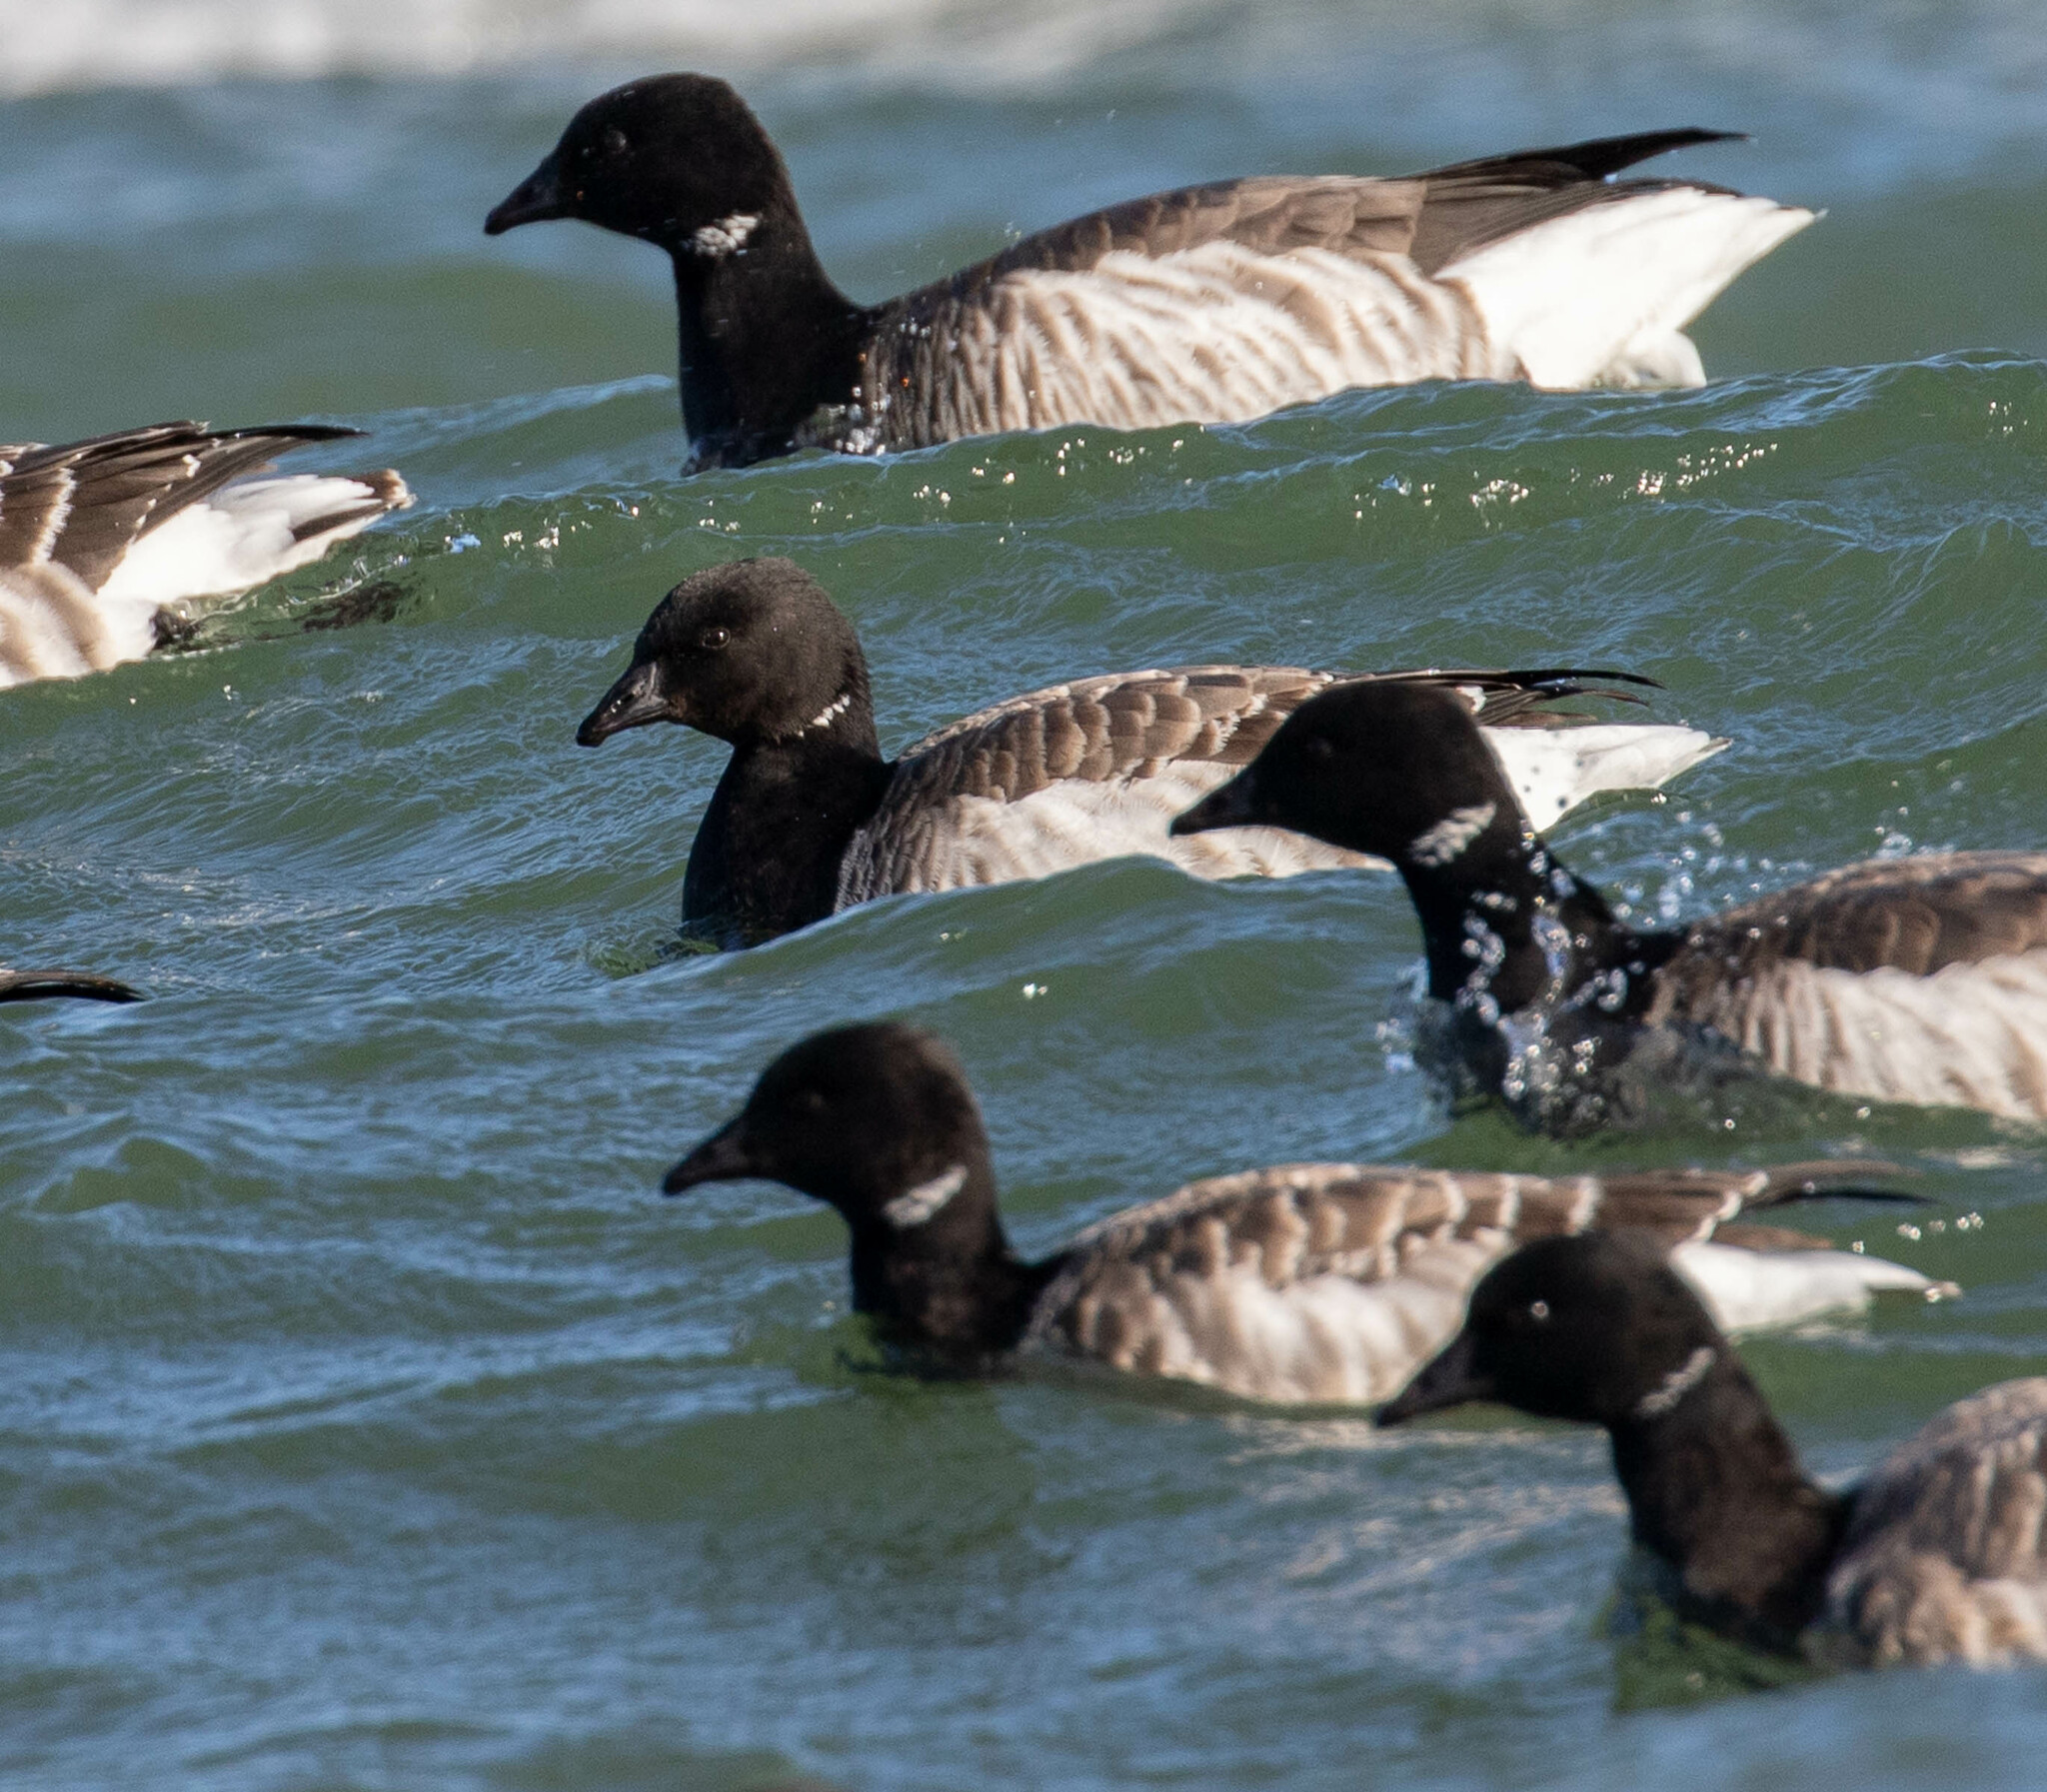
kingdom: Animalia
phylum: Chordata
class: Aves
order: Anseriformes
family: Anatidae
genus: Branta
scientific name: Branta bernicla
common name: Brant goose
